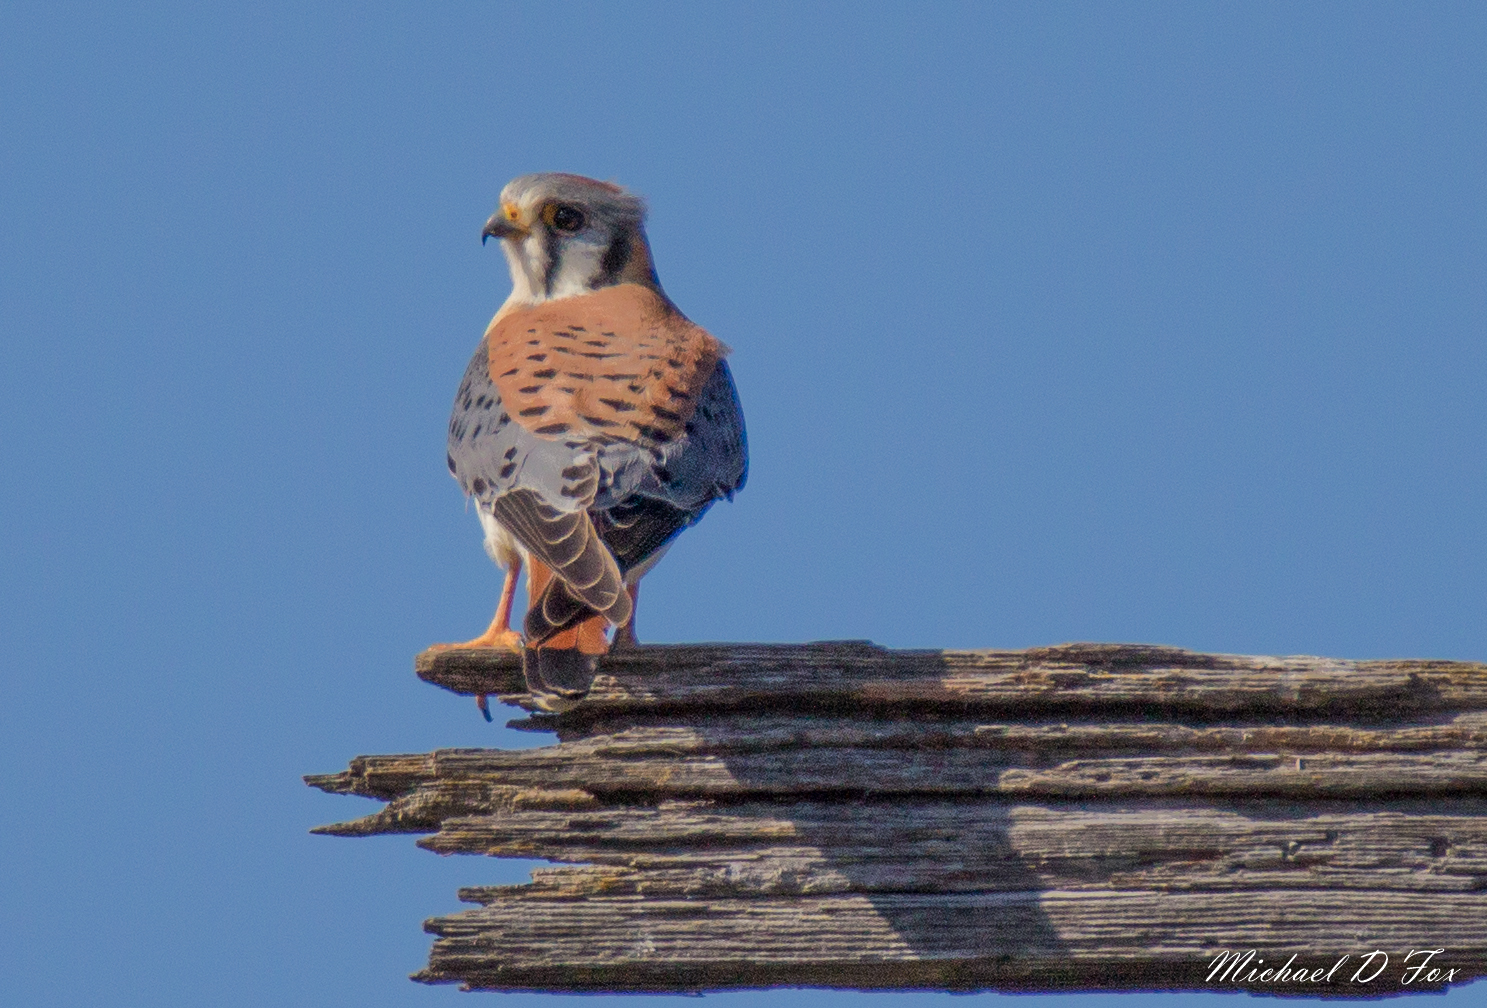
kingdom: Animalia
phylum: Chordata
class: Aves
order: Falconiformes
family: Falconidae
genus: Falco
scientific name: Falco sparverius
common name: American kestrel
